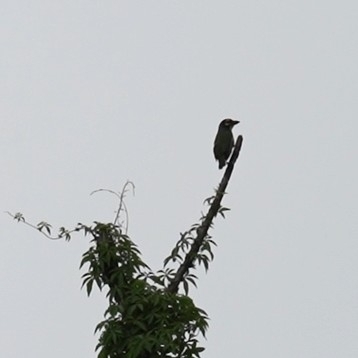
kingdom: Animalia
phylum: Chordata
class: Aves
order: Piciformes
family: Megalaimidae
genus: Psilopogon
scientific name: Psilopogon haemacephalus
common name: Coppersmith barbet
